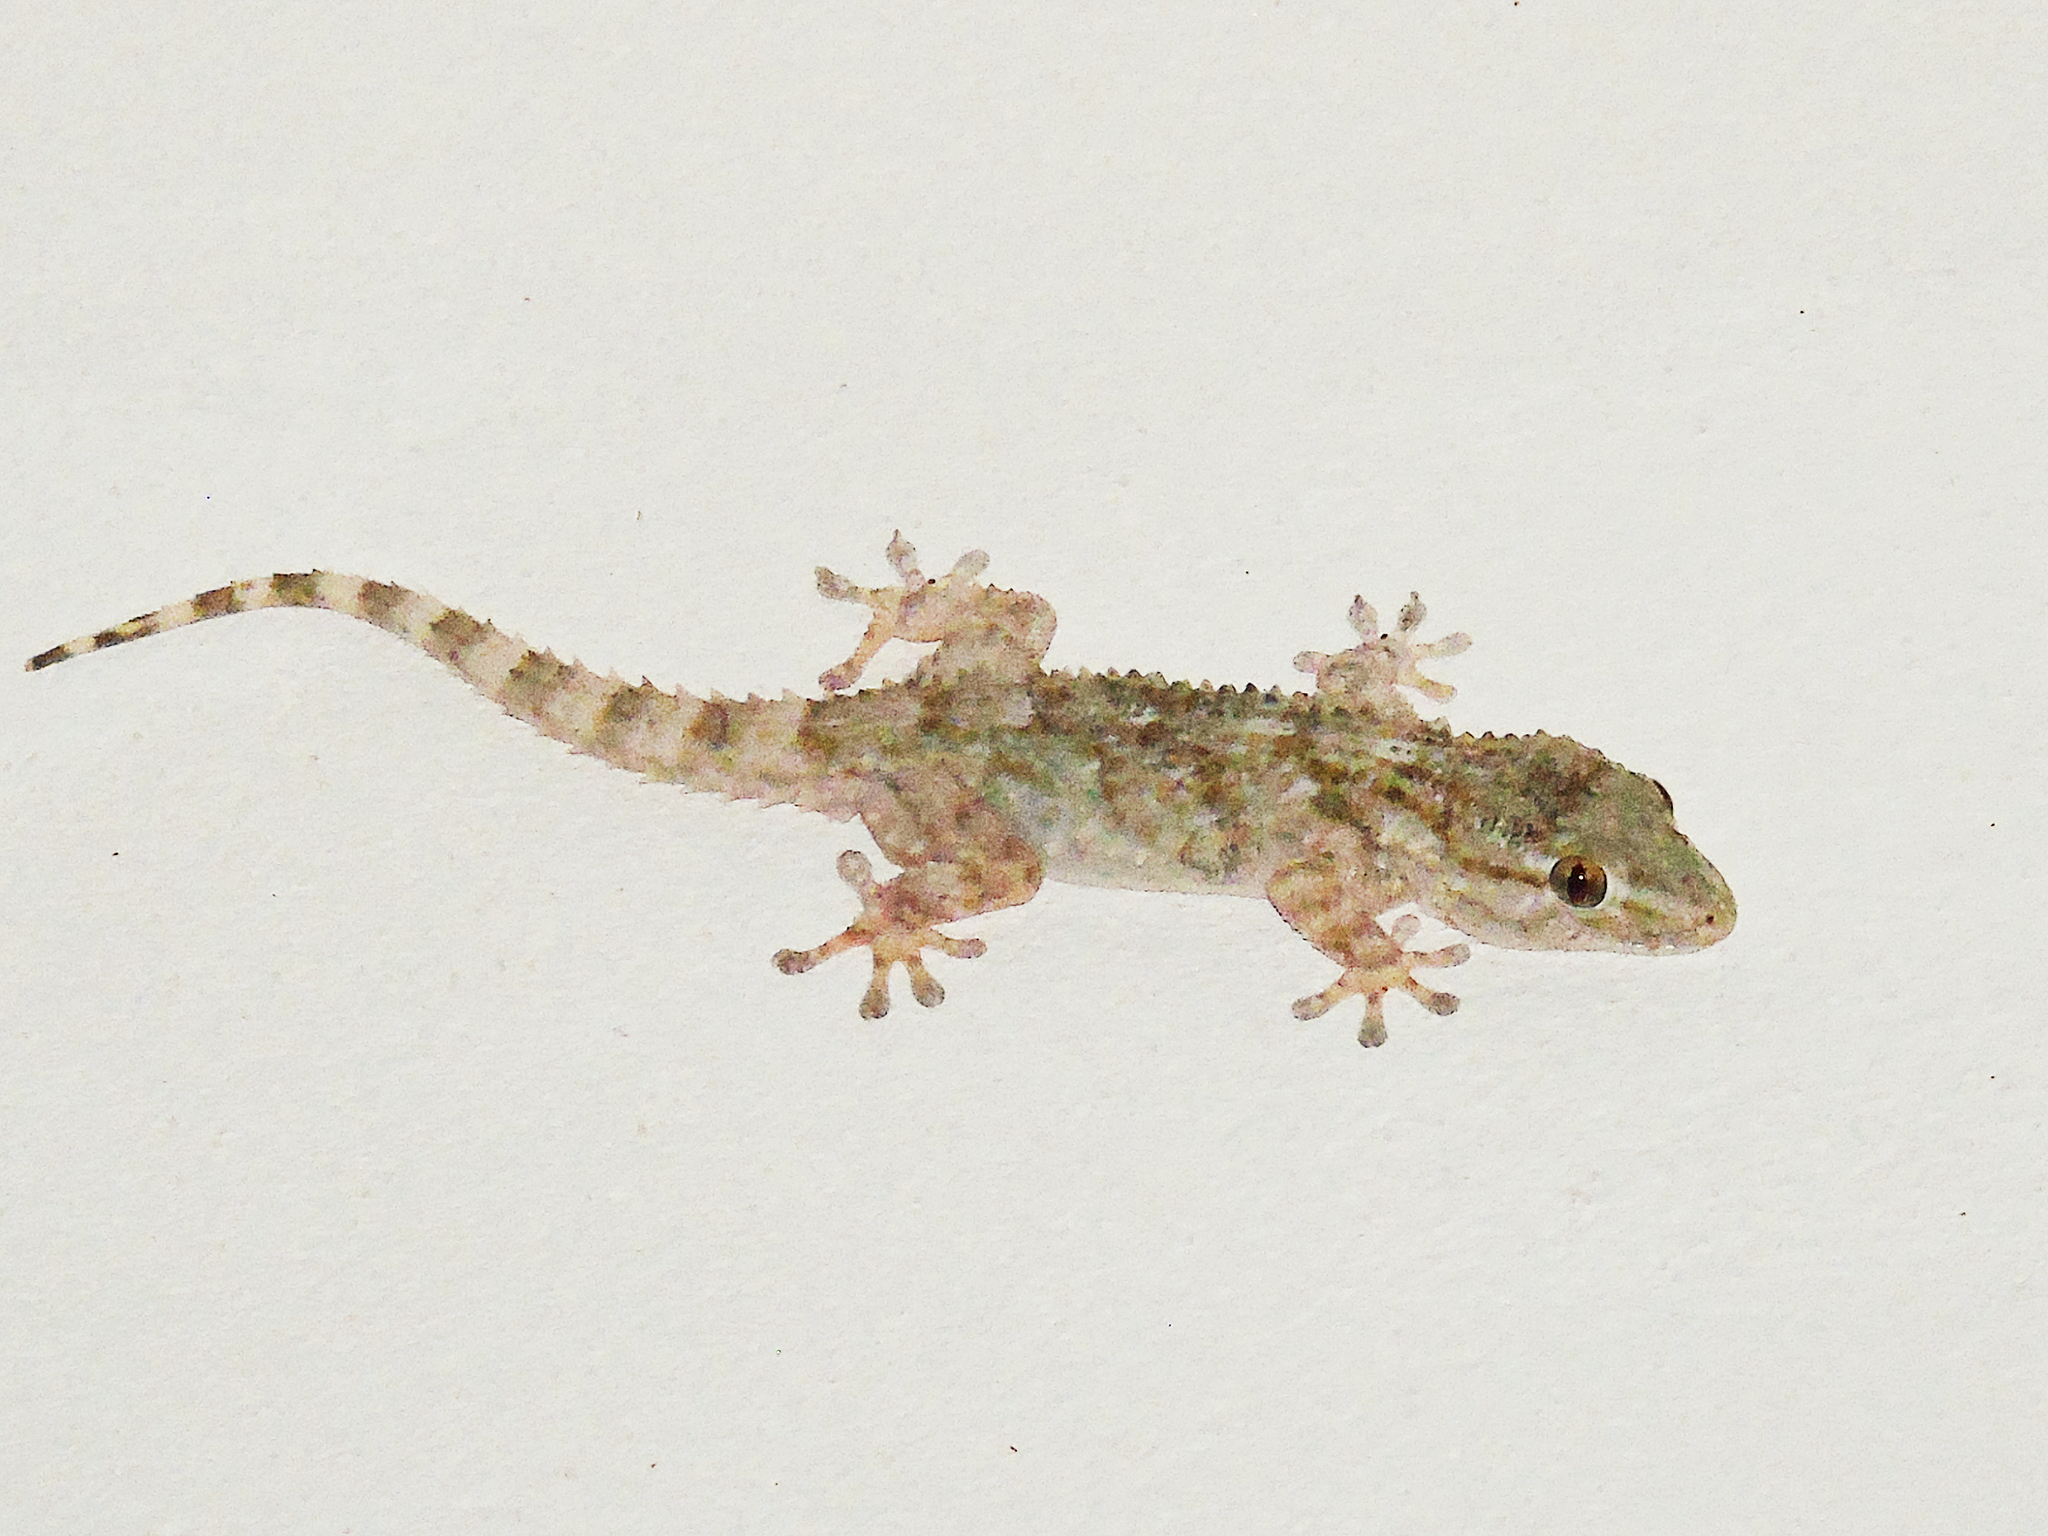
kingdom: Animalia
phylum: Chordata
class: Squamata
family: Phyllodactylidae
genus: Tarentola
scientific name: Tarentola mauritanica
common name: Moorish gecko
